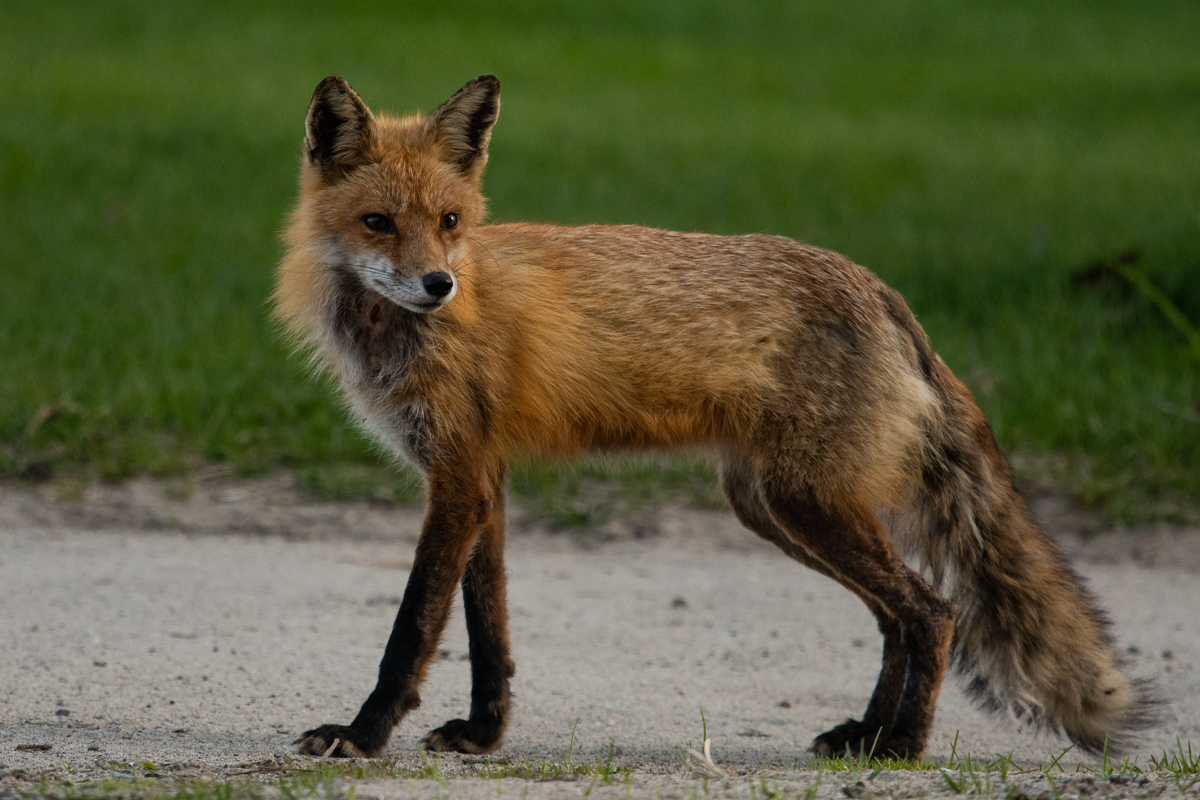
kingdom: Animalia
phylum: Chordata
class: Mammalia
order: Carnivora
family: Canidae
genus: Vulpes
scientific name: Vulpes vulpes
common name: Red fox
